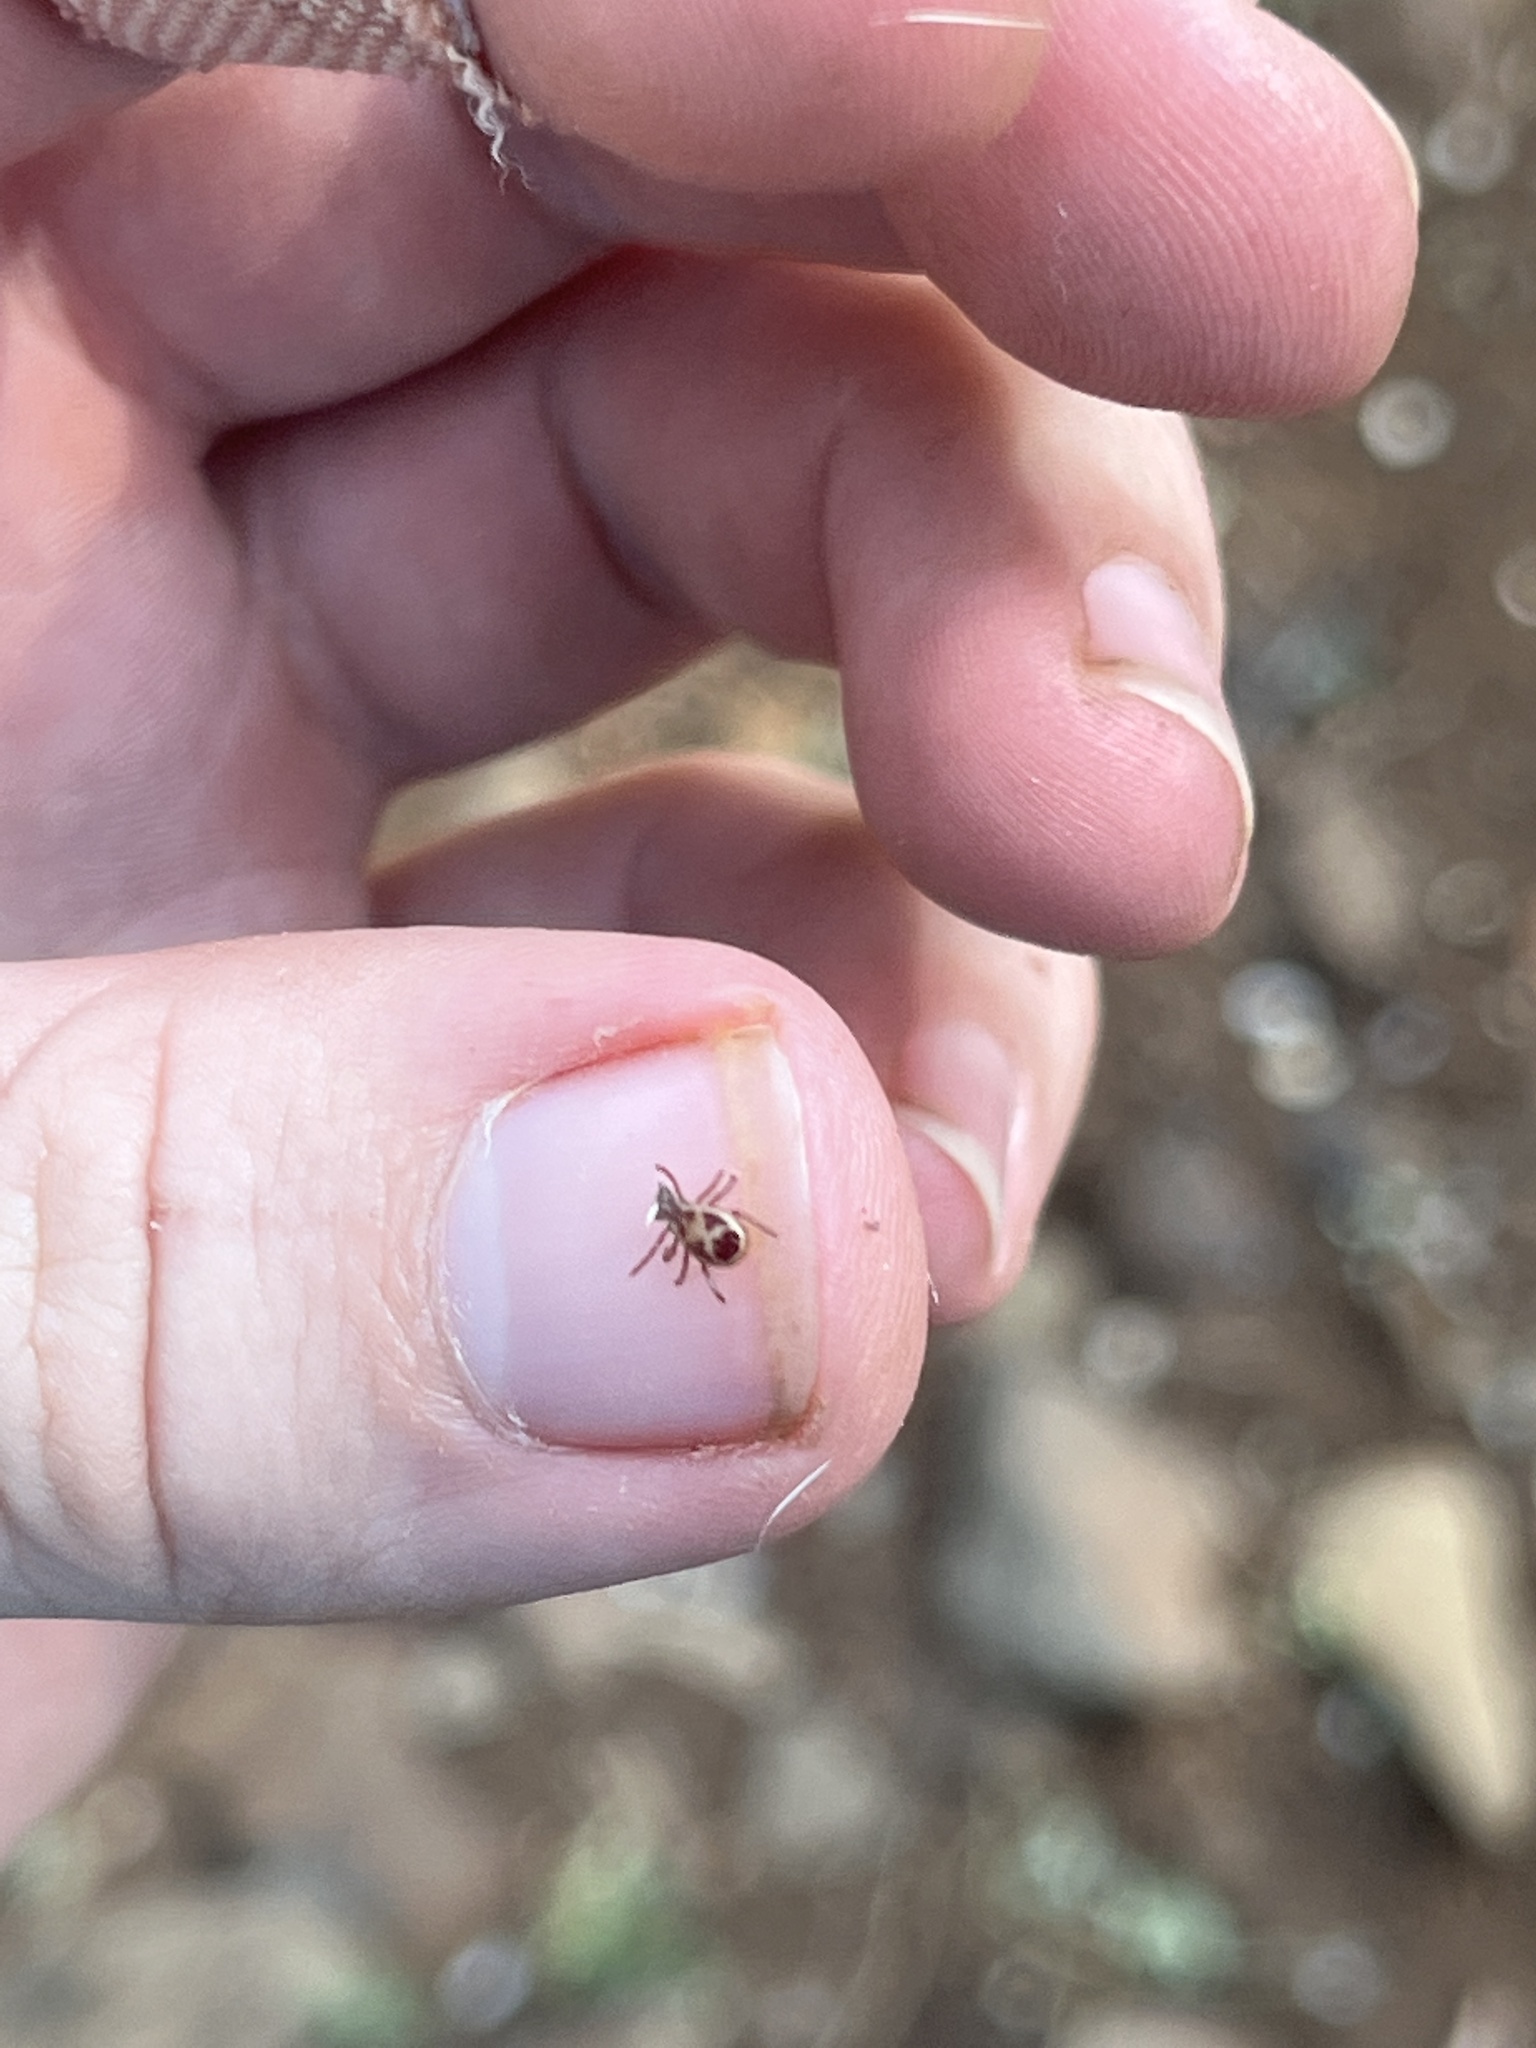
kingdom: Animalia
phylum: Arthropoda
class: Arachnida
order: Ixodida
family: Ixodidae
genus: Rhipicephalus
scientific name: Rhipicephalus pulchellus
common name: Yellow backed tick
